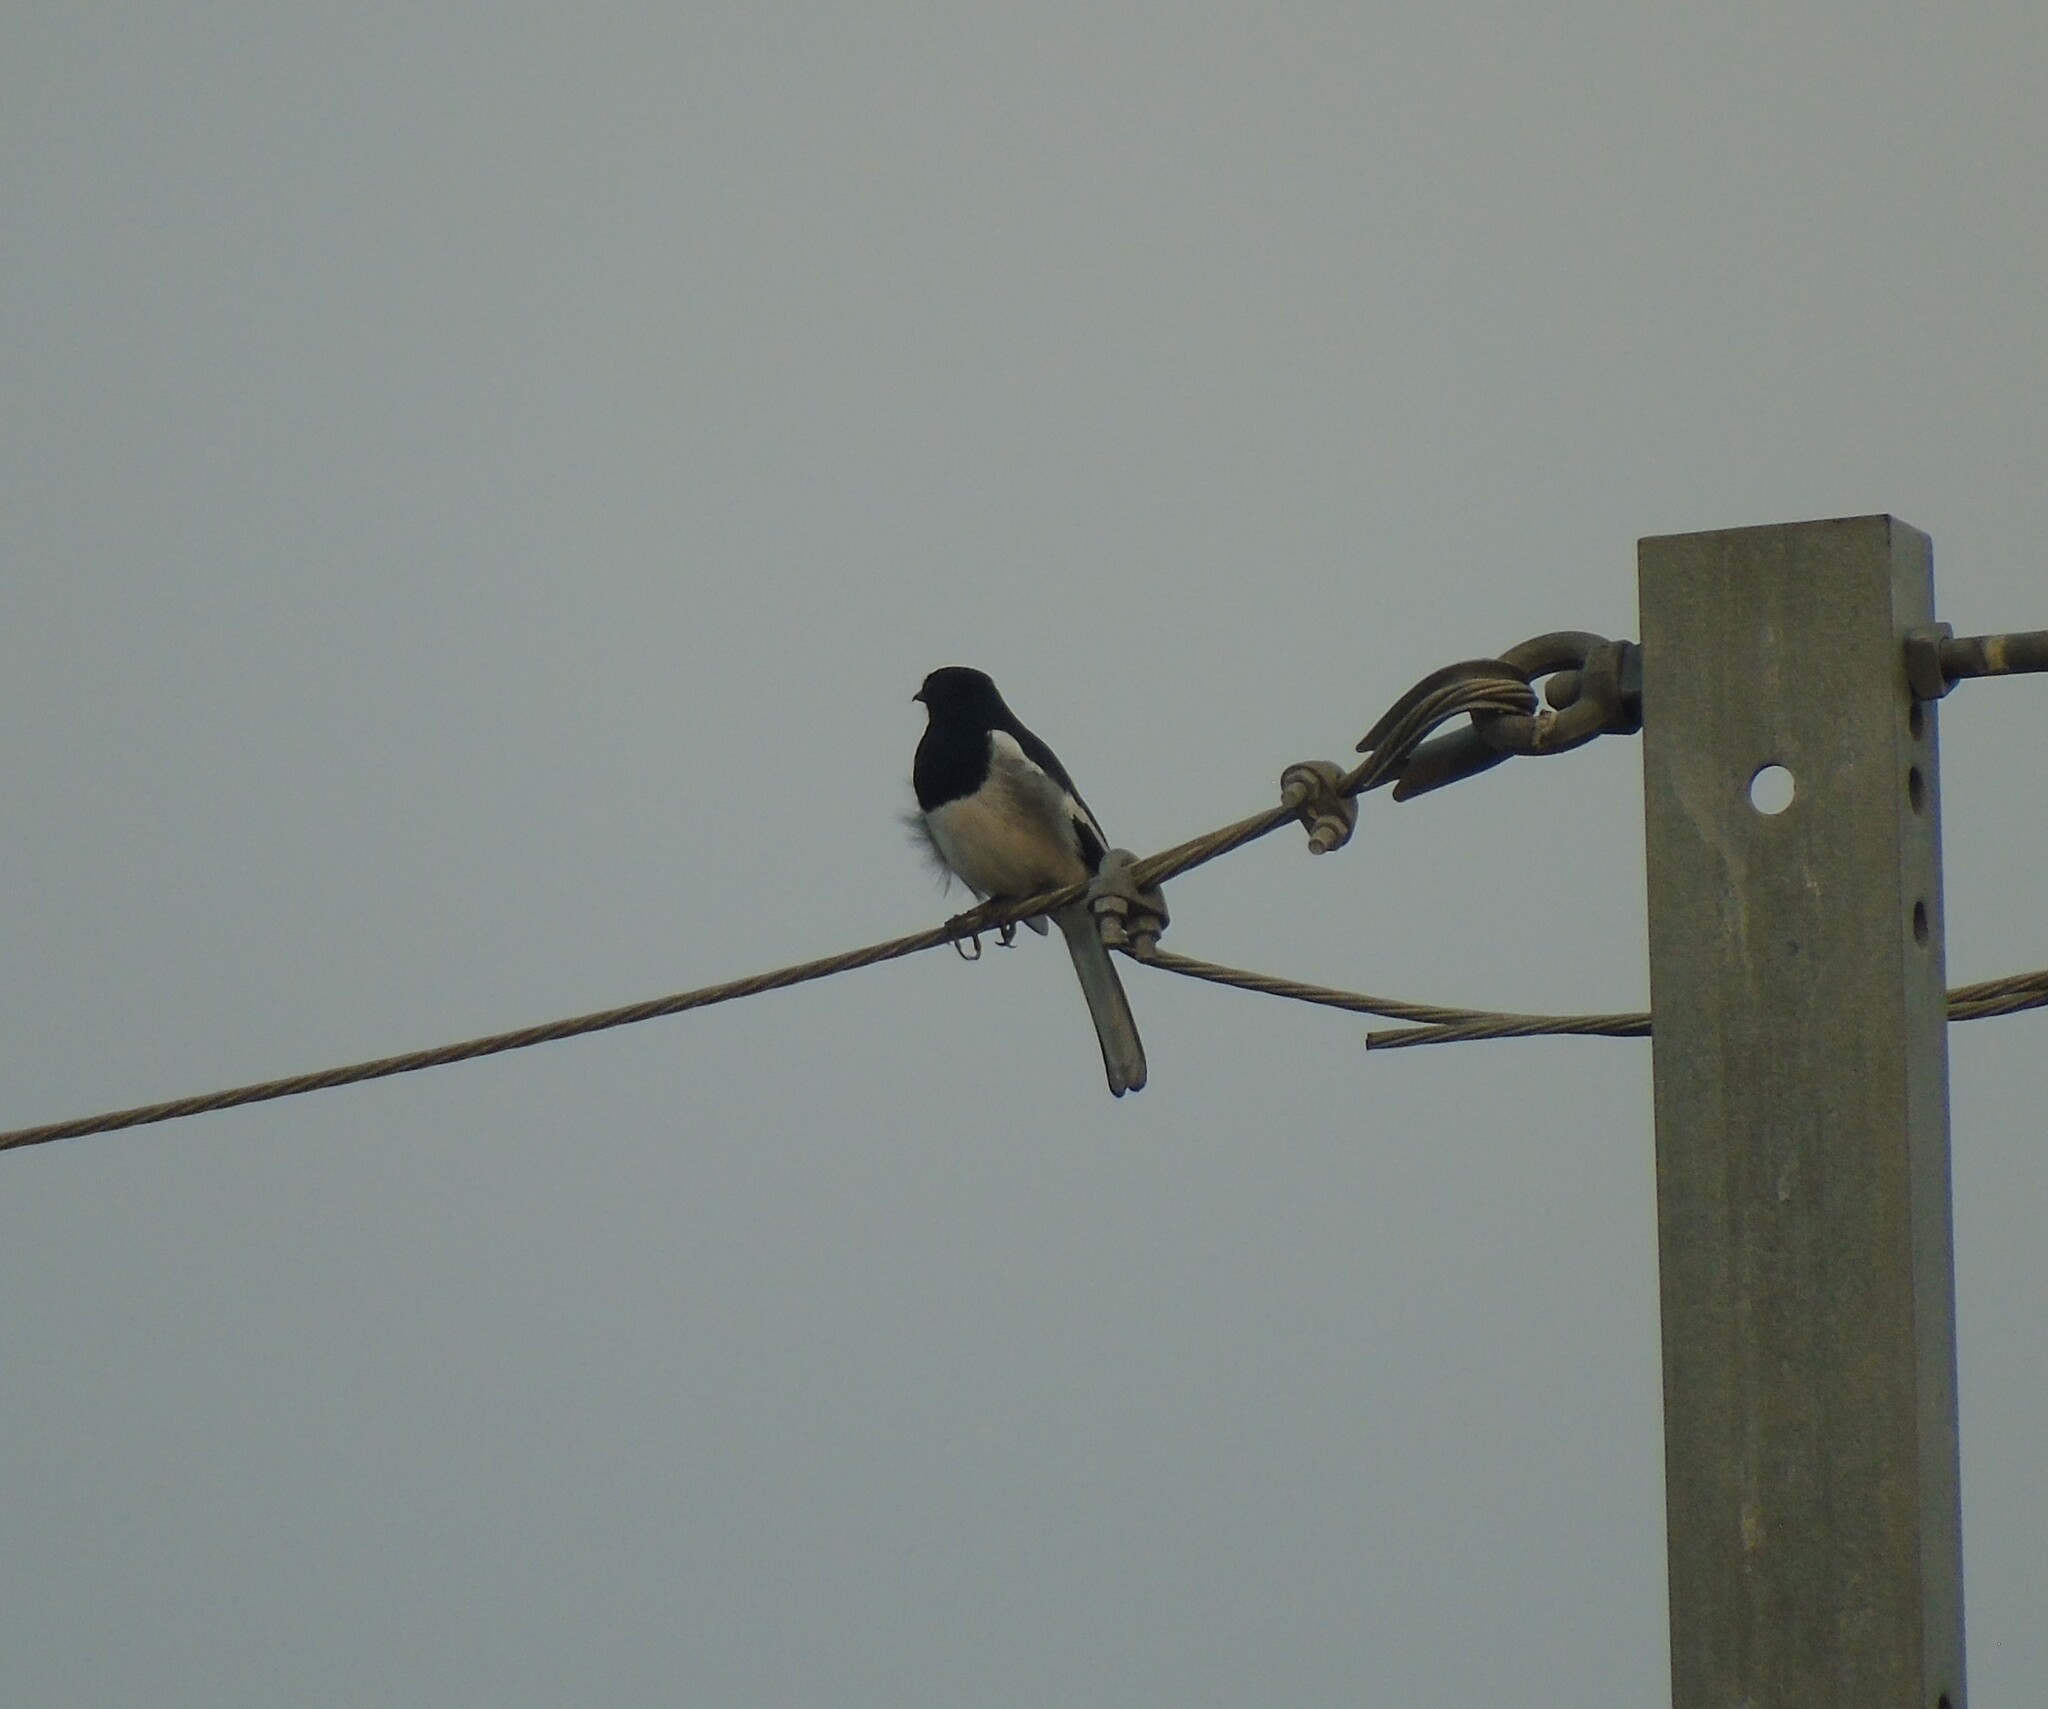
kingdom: Animalia
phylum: Chordata
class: Aves
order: Passeriformes
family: Muscicapidae
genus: Copsychus
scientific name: Copsychus saularis
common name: Oriental magpie-robin
